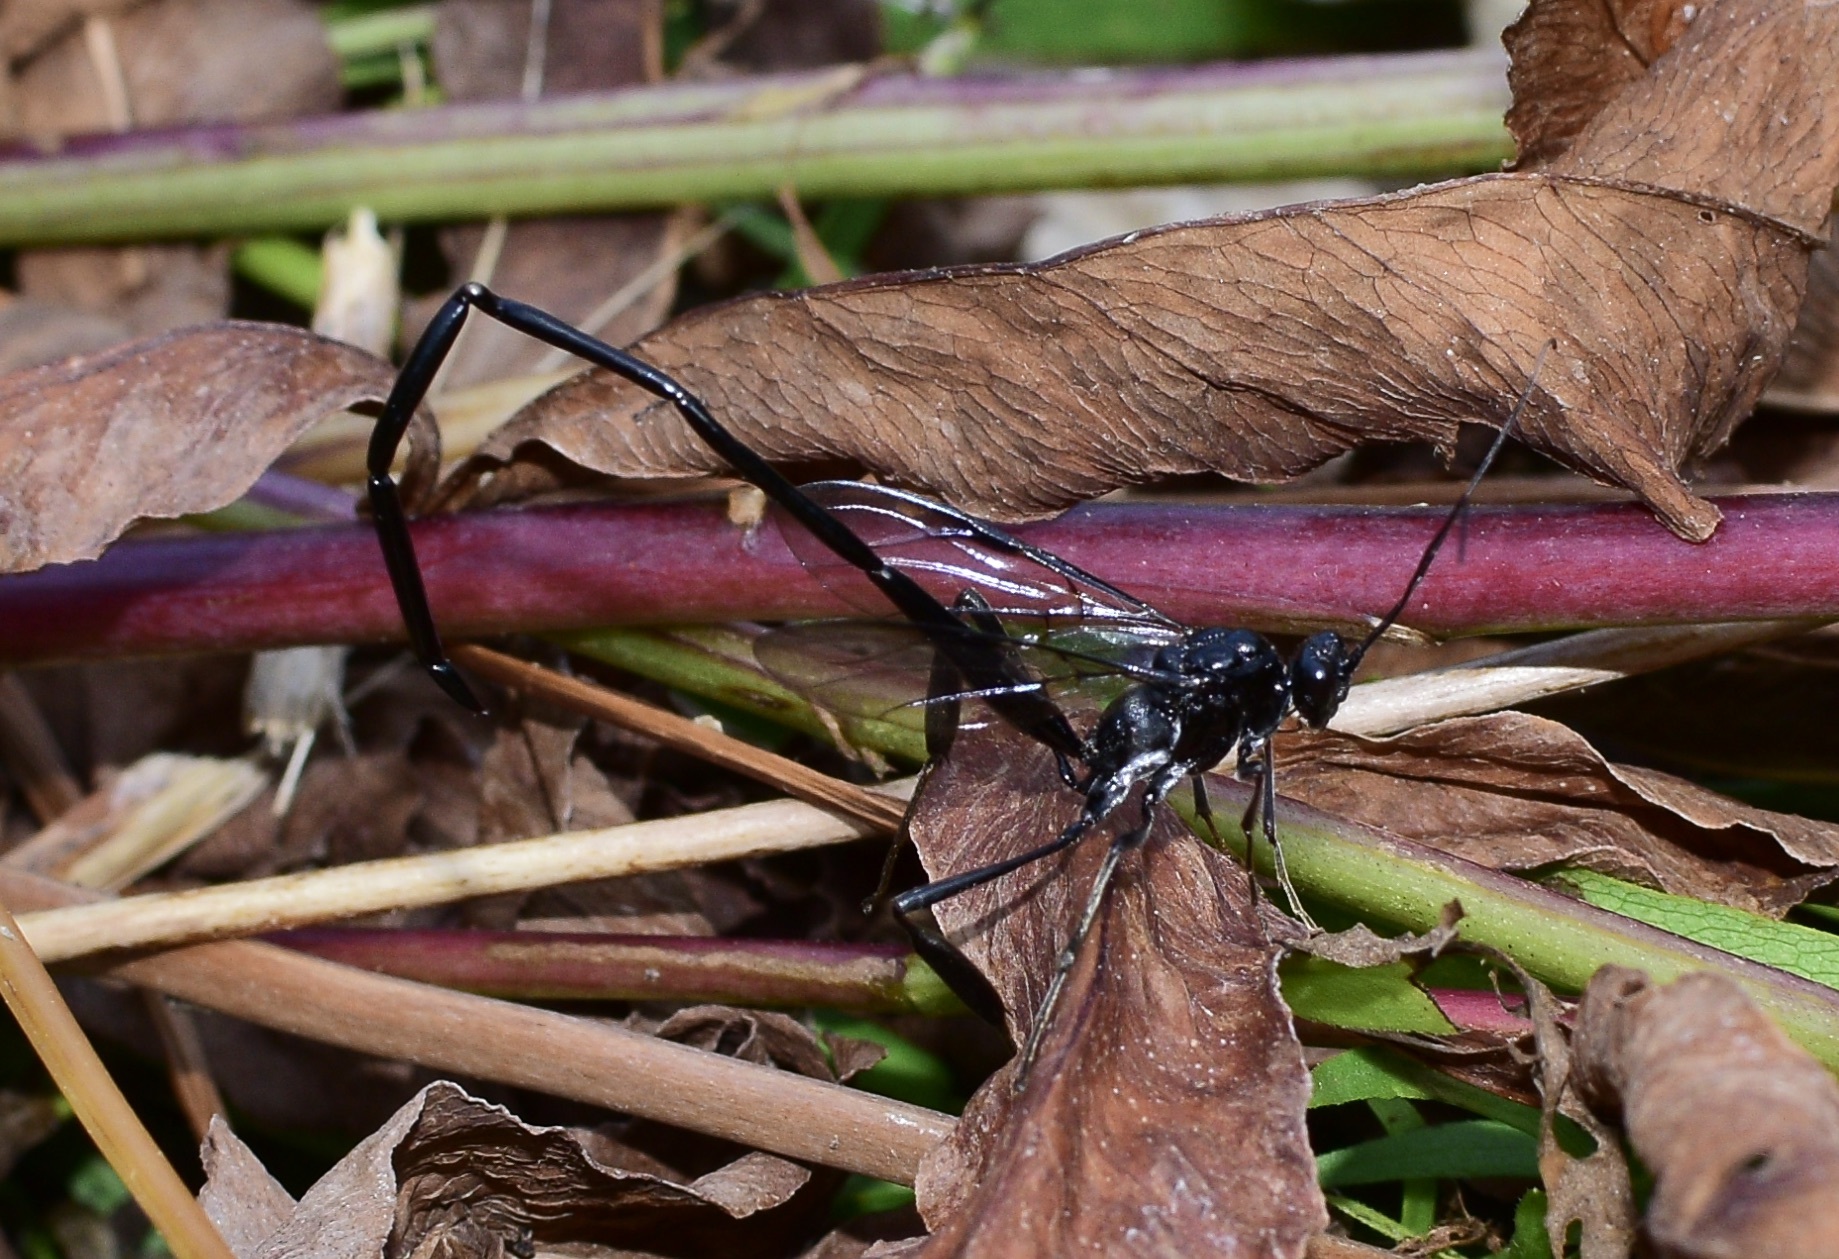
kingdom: Animalia
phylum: Arthropoda
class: Insecta
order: Hymenoptera
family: Pelecinidae
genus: Pelecinus
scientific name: Pelecinus polyturator
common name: American pelecinid wasp
